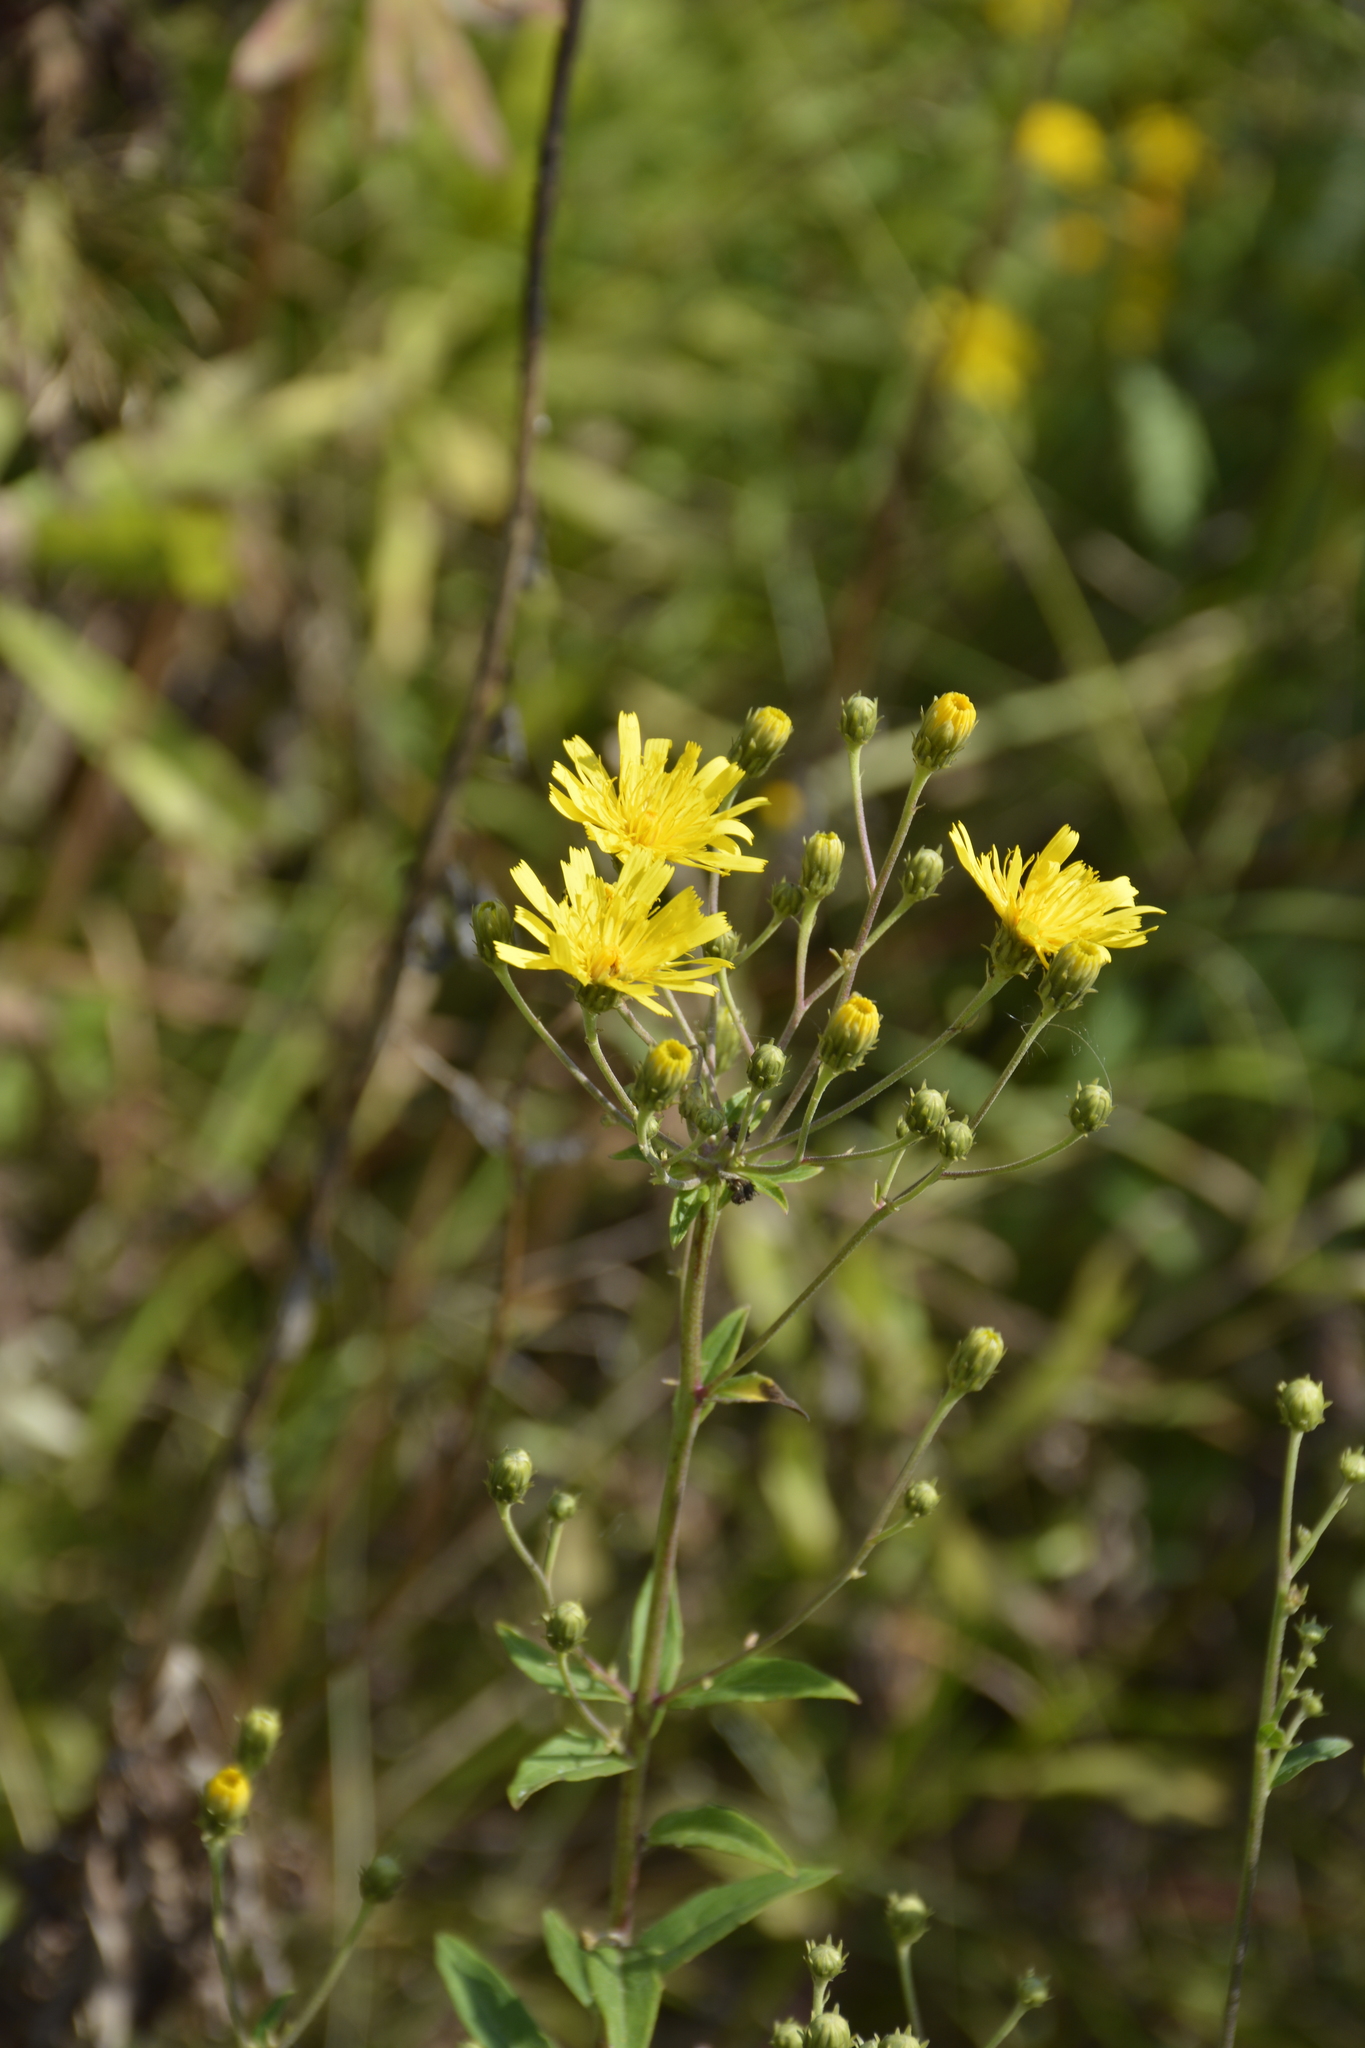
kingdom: Plantae
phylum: Tracheophyta
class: Magnoliopsida
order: Asterales
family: Asteraceae
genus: Hieracium
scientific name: Hieracium umbellatum
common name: Northern hawkweed
